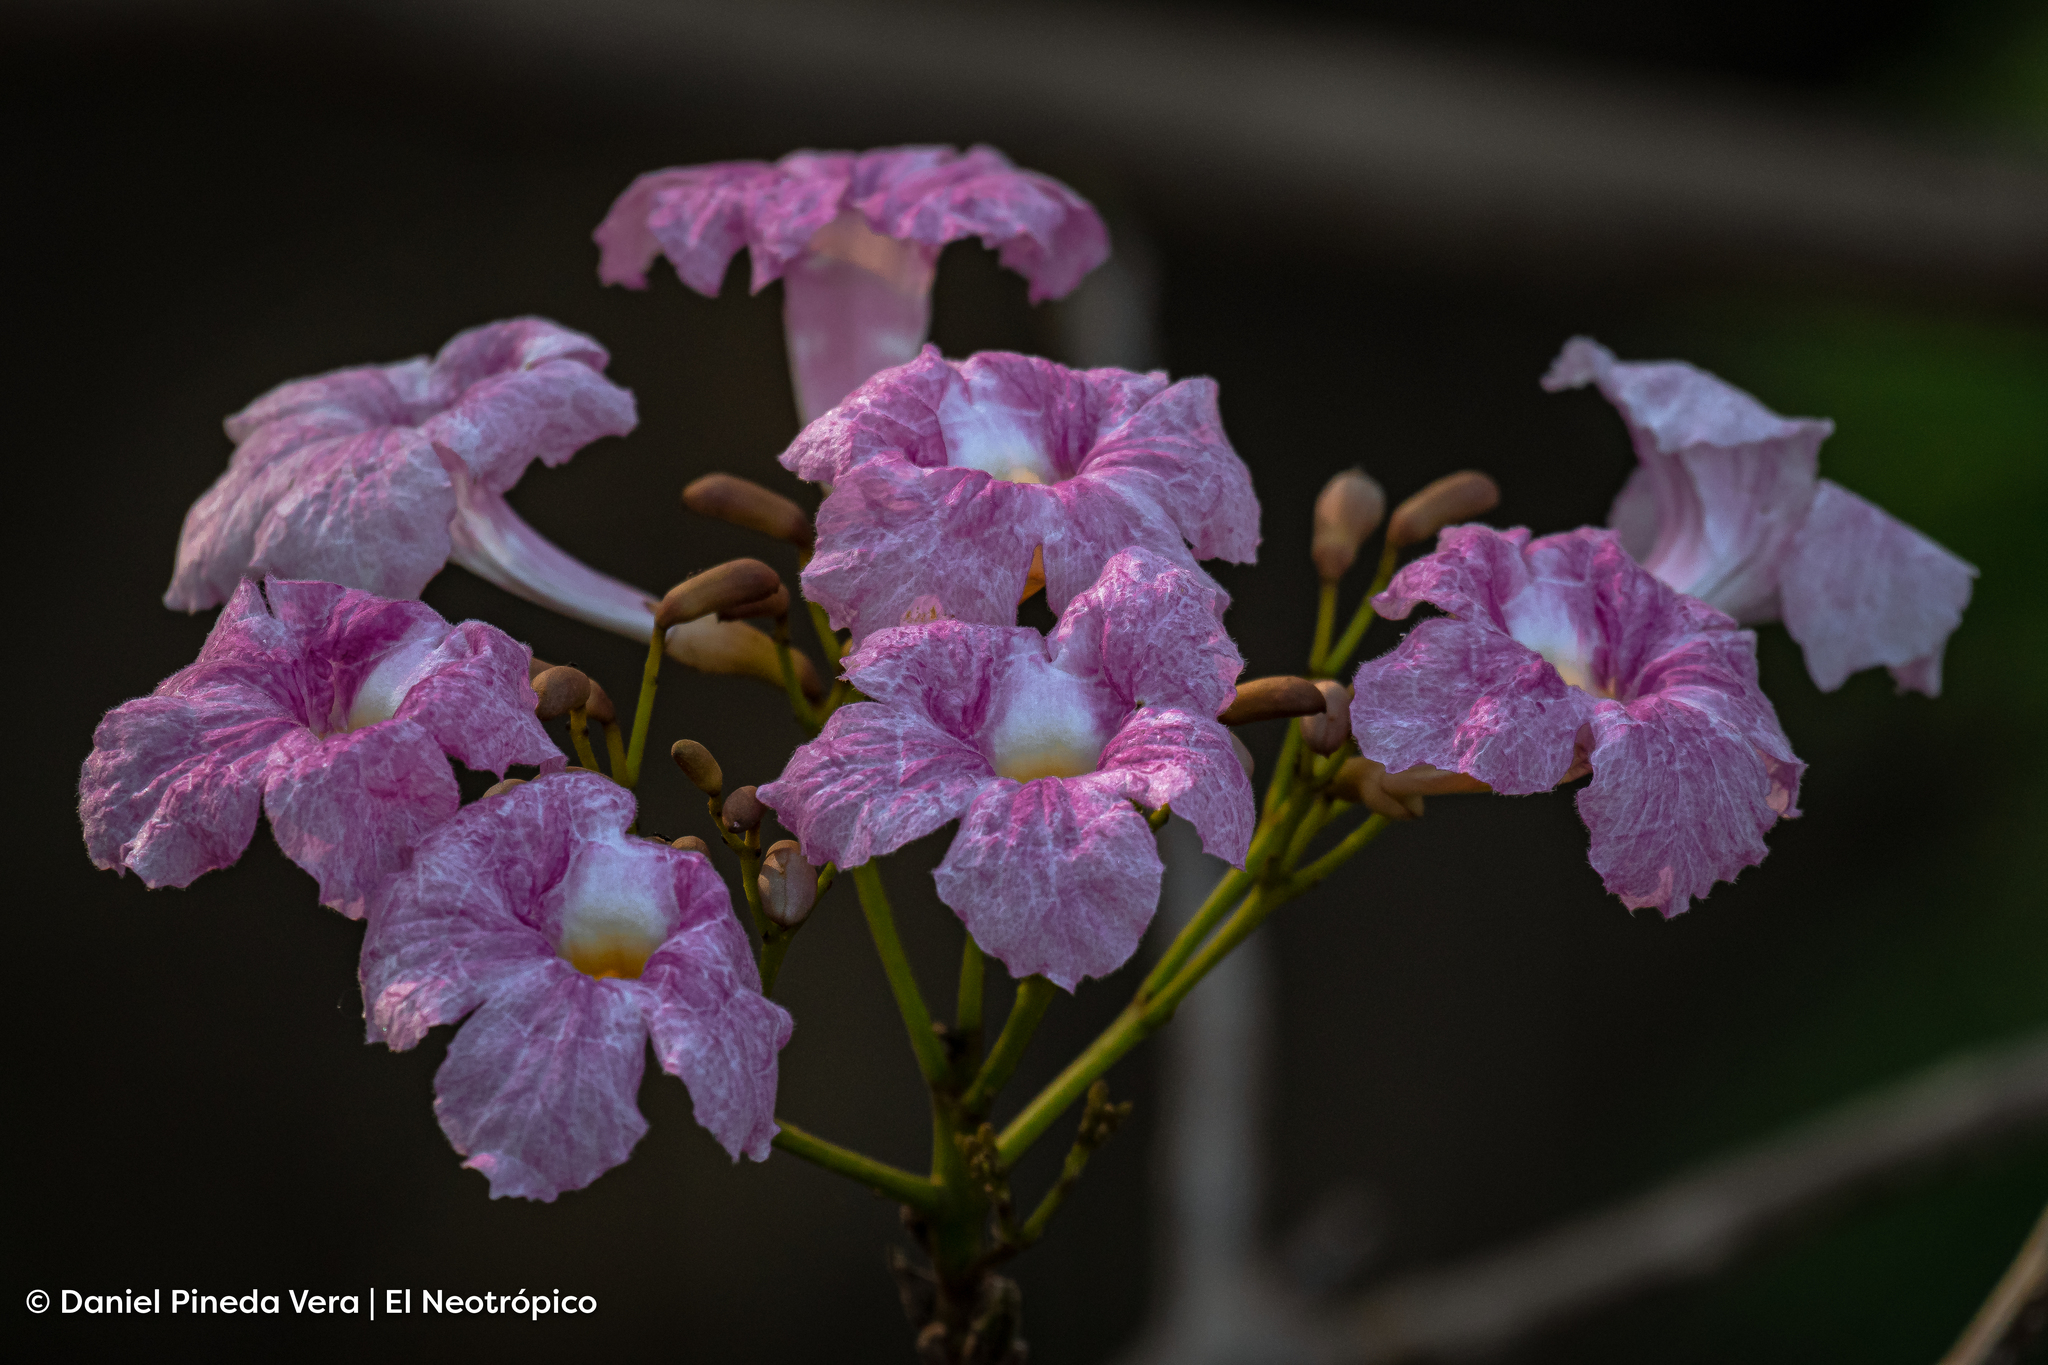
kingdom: Plantae
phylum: Tracheophyta
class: Magnoliopsida
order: Lamiales
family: Bignoniaceae
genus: Tabebuia
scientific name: Tabebuia rosea
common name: Pink poui
